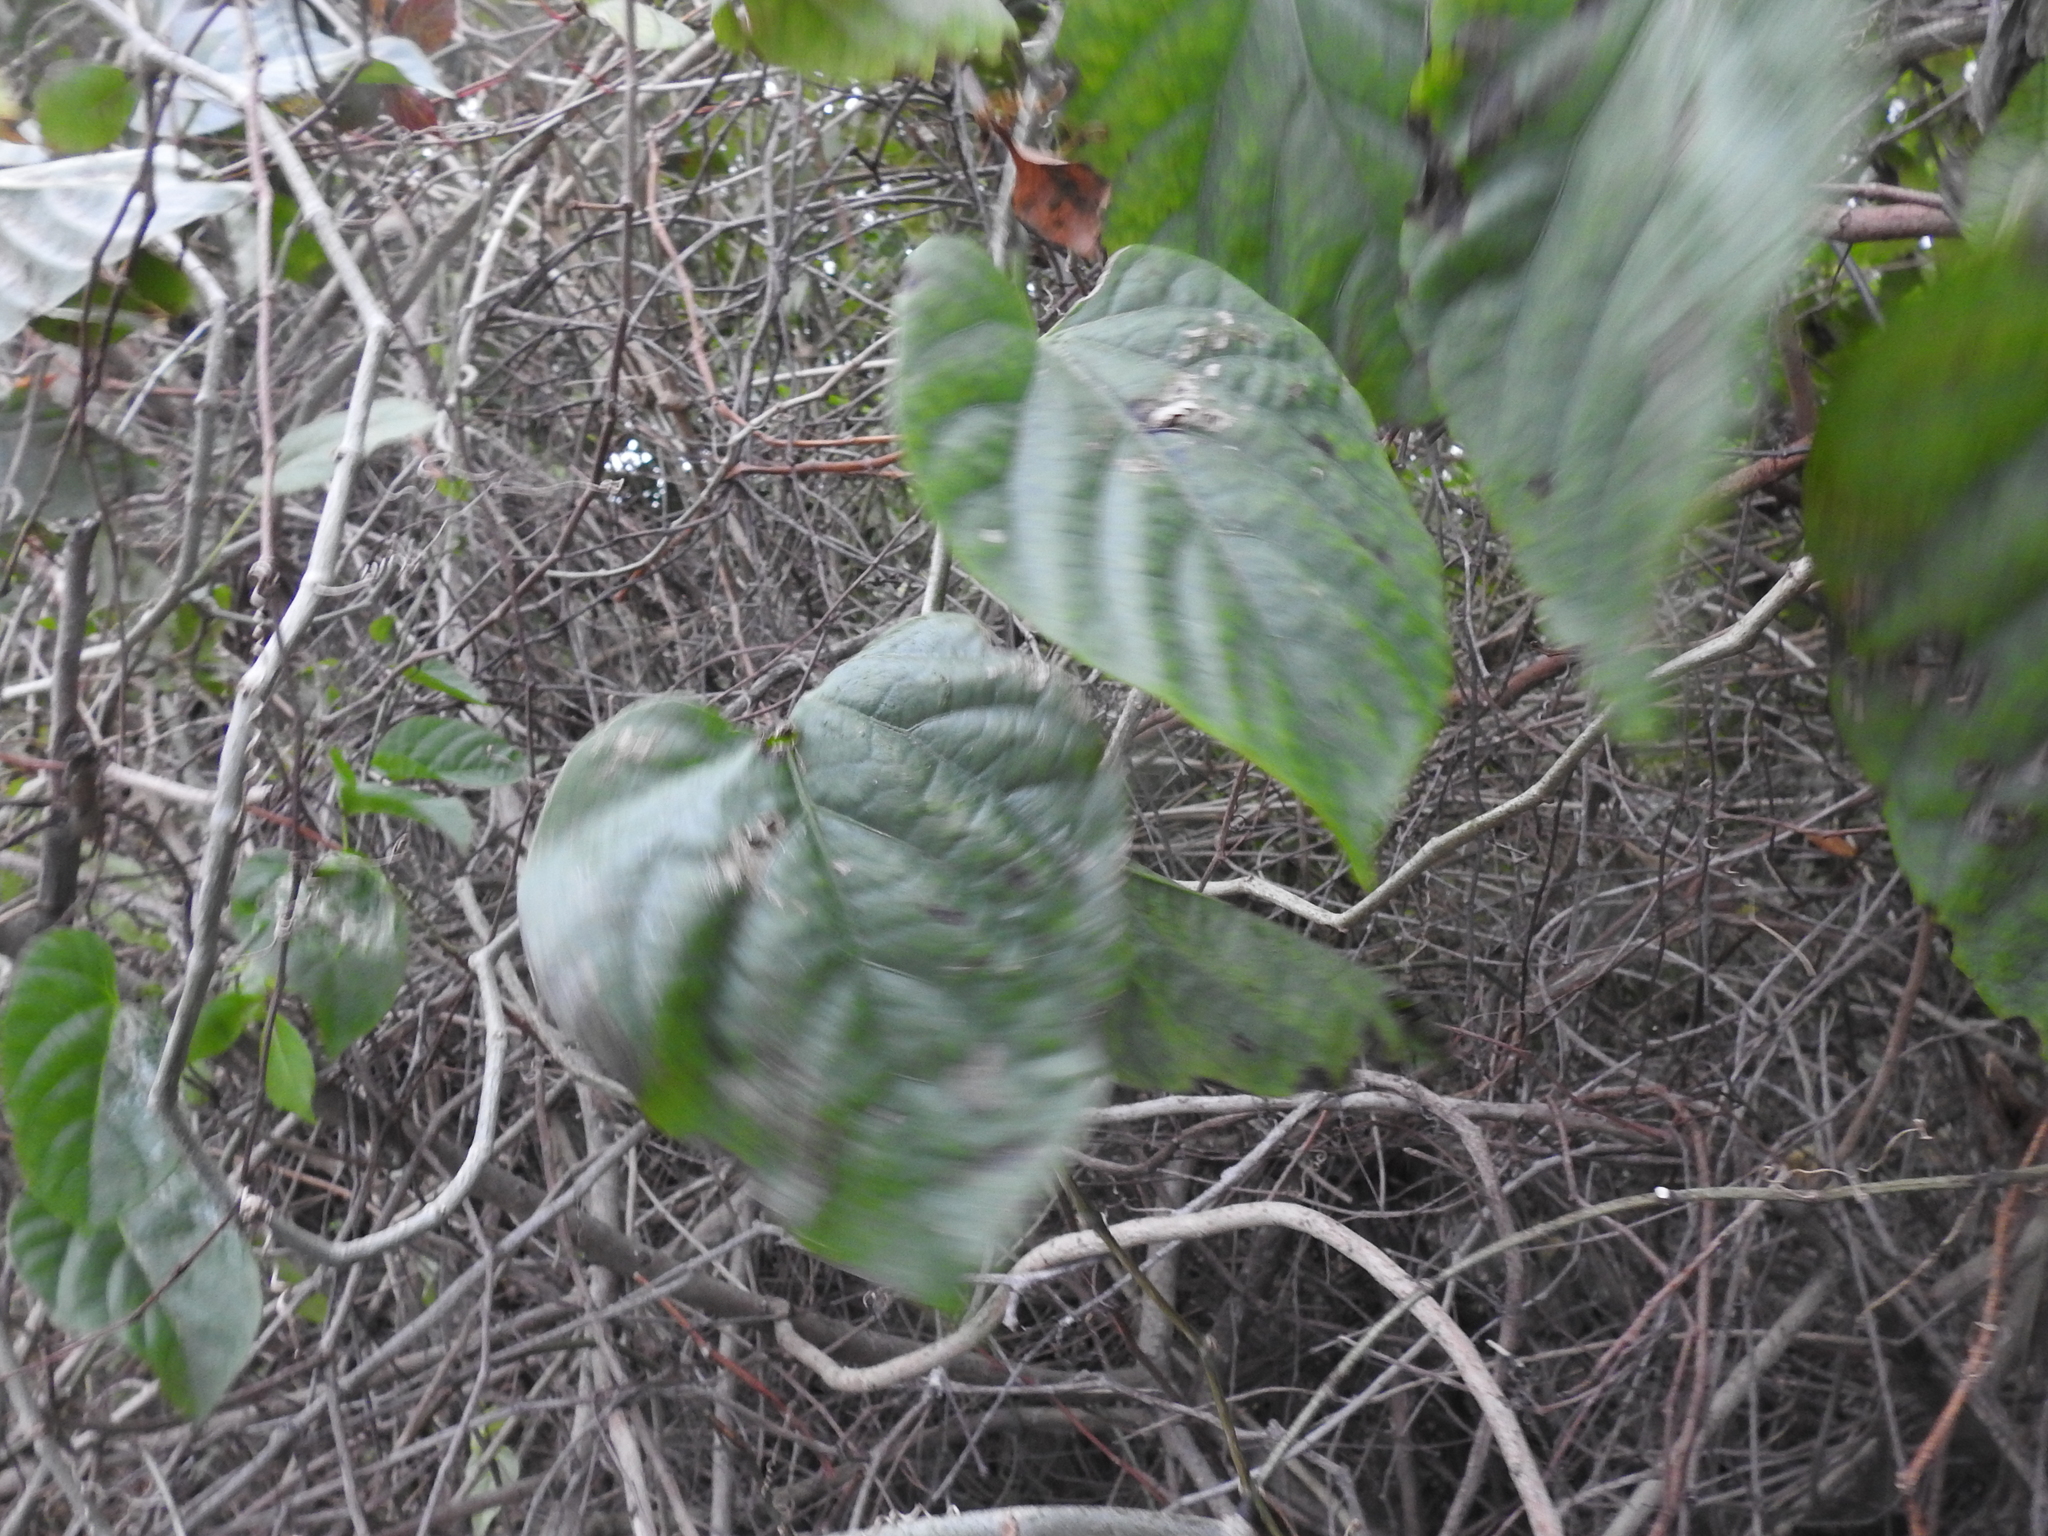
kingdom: Plantae
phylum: Tracheophyta
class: Magnoliopsida
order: Vitales
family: Vitaceae
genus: Cissus
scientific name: Cissus verticillata
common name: Princess vine
